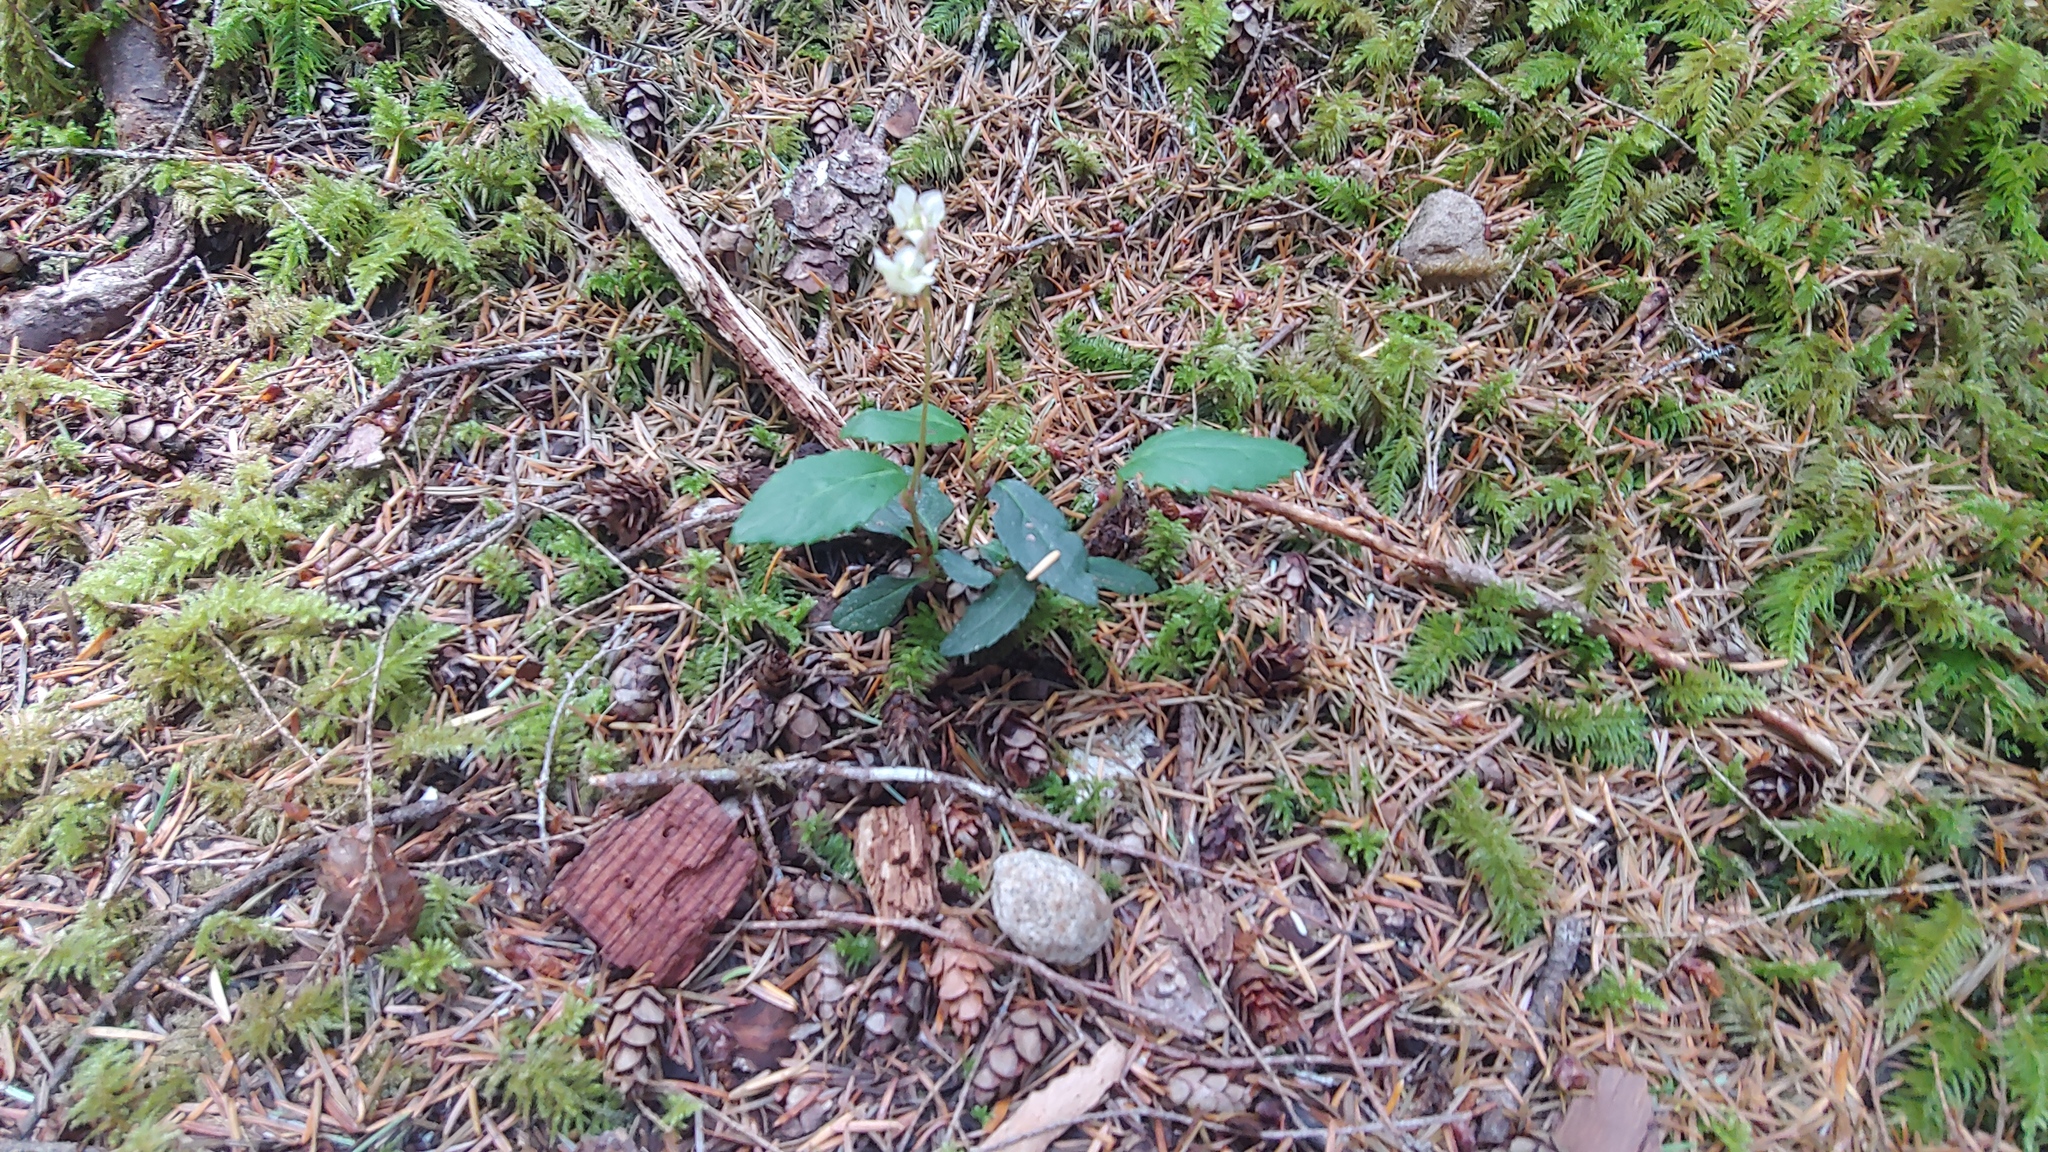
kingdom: Plantae
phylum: Tracheophyta
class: Magnoliopsida
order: Ericales
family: Ericaceae
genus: Chimaphila
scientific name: Chimaphila menziesii
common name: Menzies' pipsissewa
